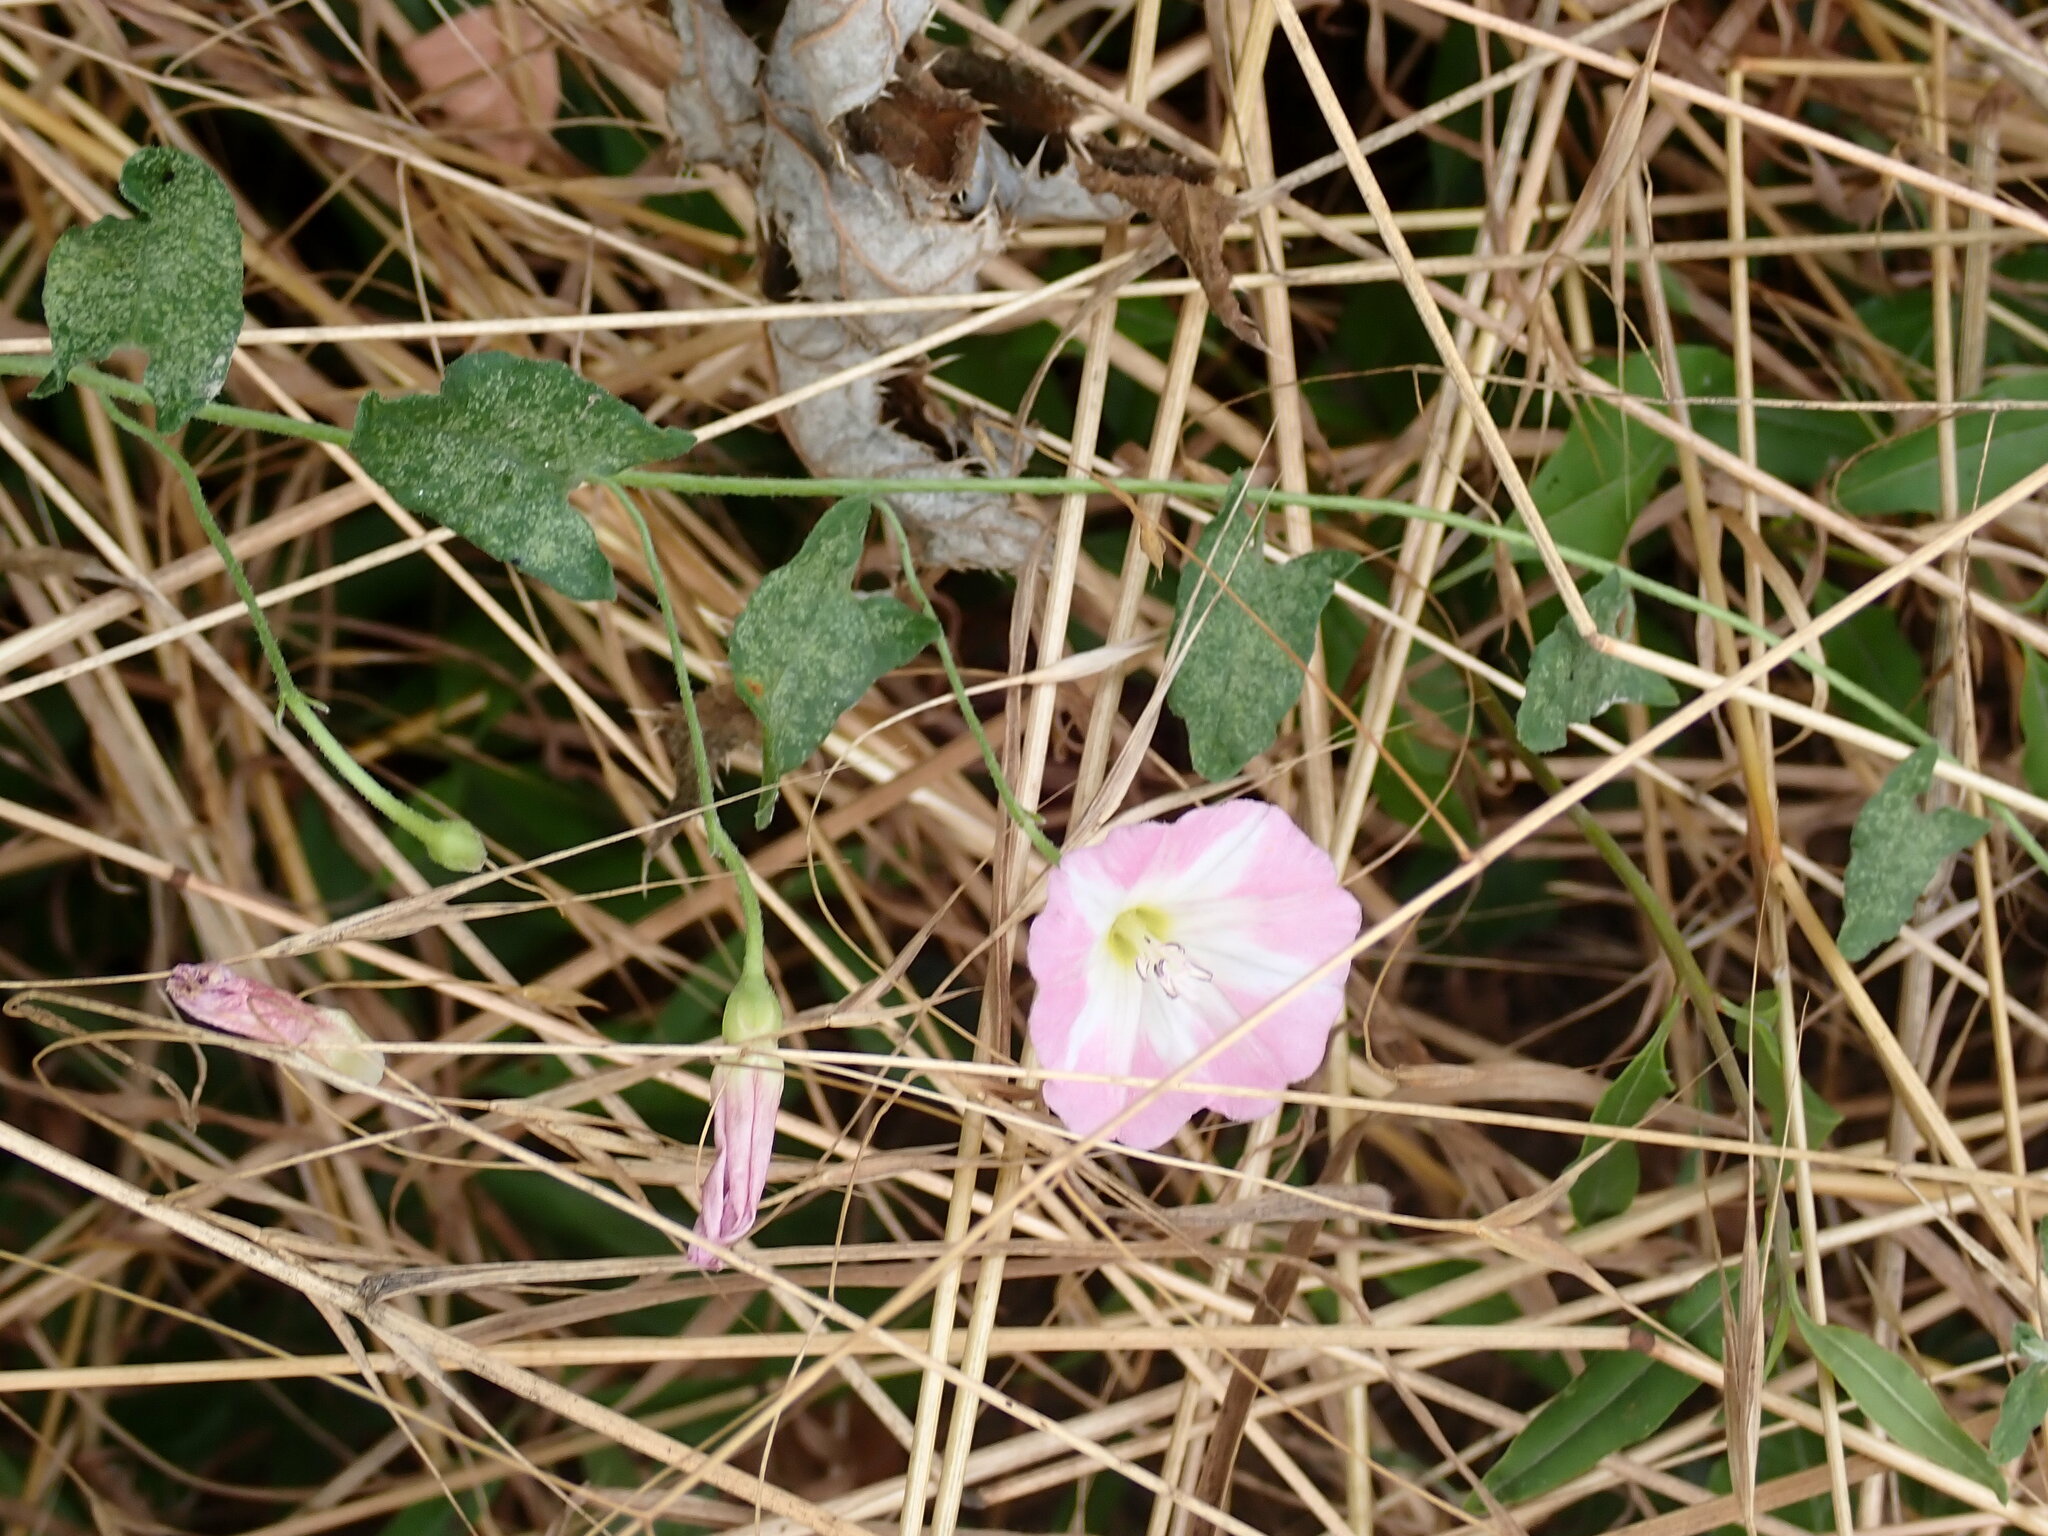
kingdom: Plantae
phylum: Tracheophyta
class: Magnoliopsida
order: Solanales
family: Convolvulaceae
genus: Convolvulus
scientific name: Convolvulus arvensis
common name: Field bindweed
